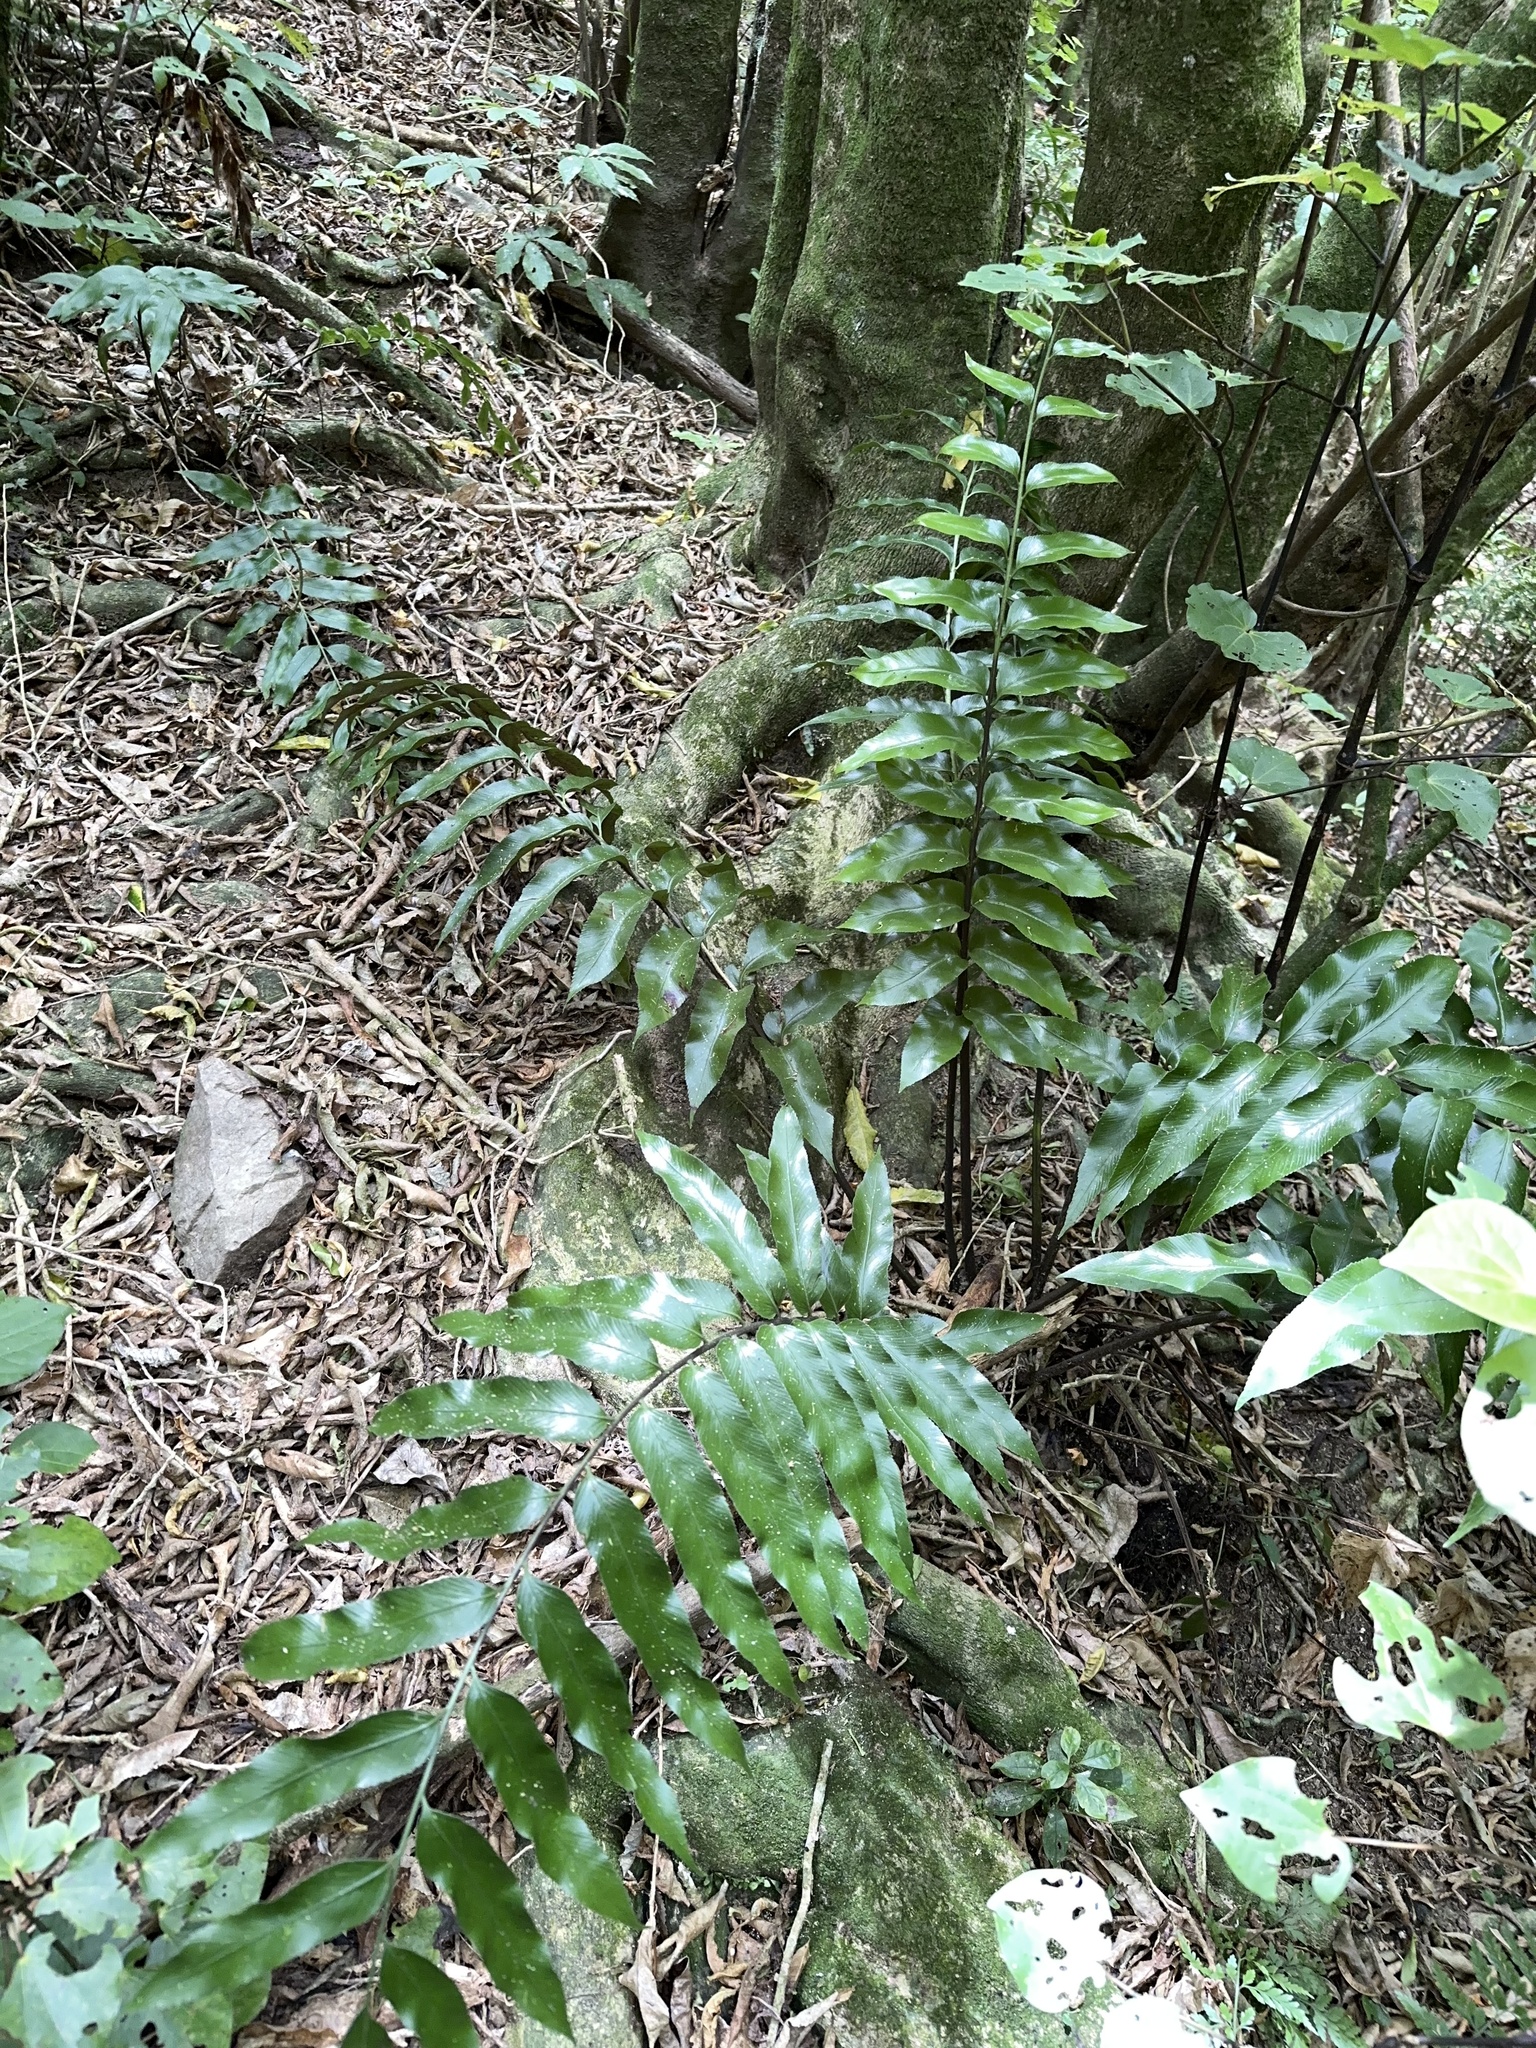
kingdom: Plantae
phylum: Tracheophyta
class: Polypodiopsida
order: Polypodiales
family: Aspleniaceae
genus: Asplenium
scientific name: Asplenium oblongifolium
